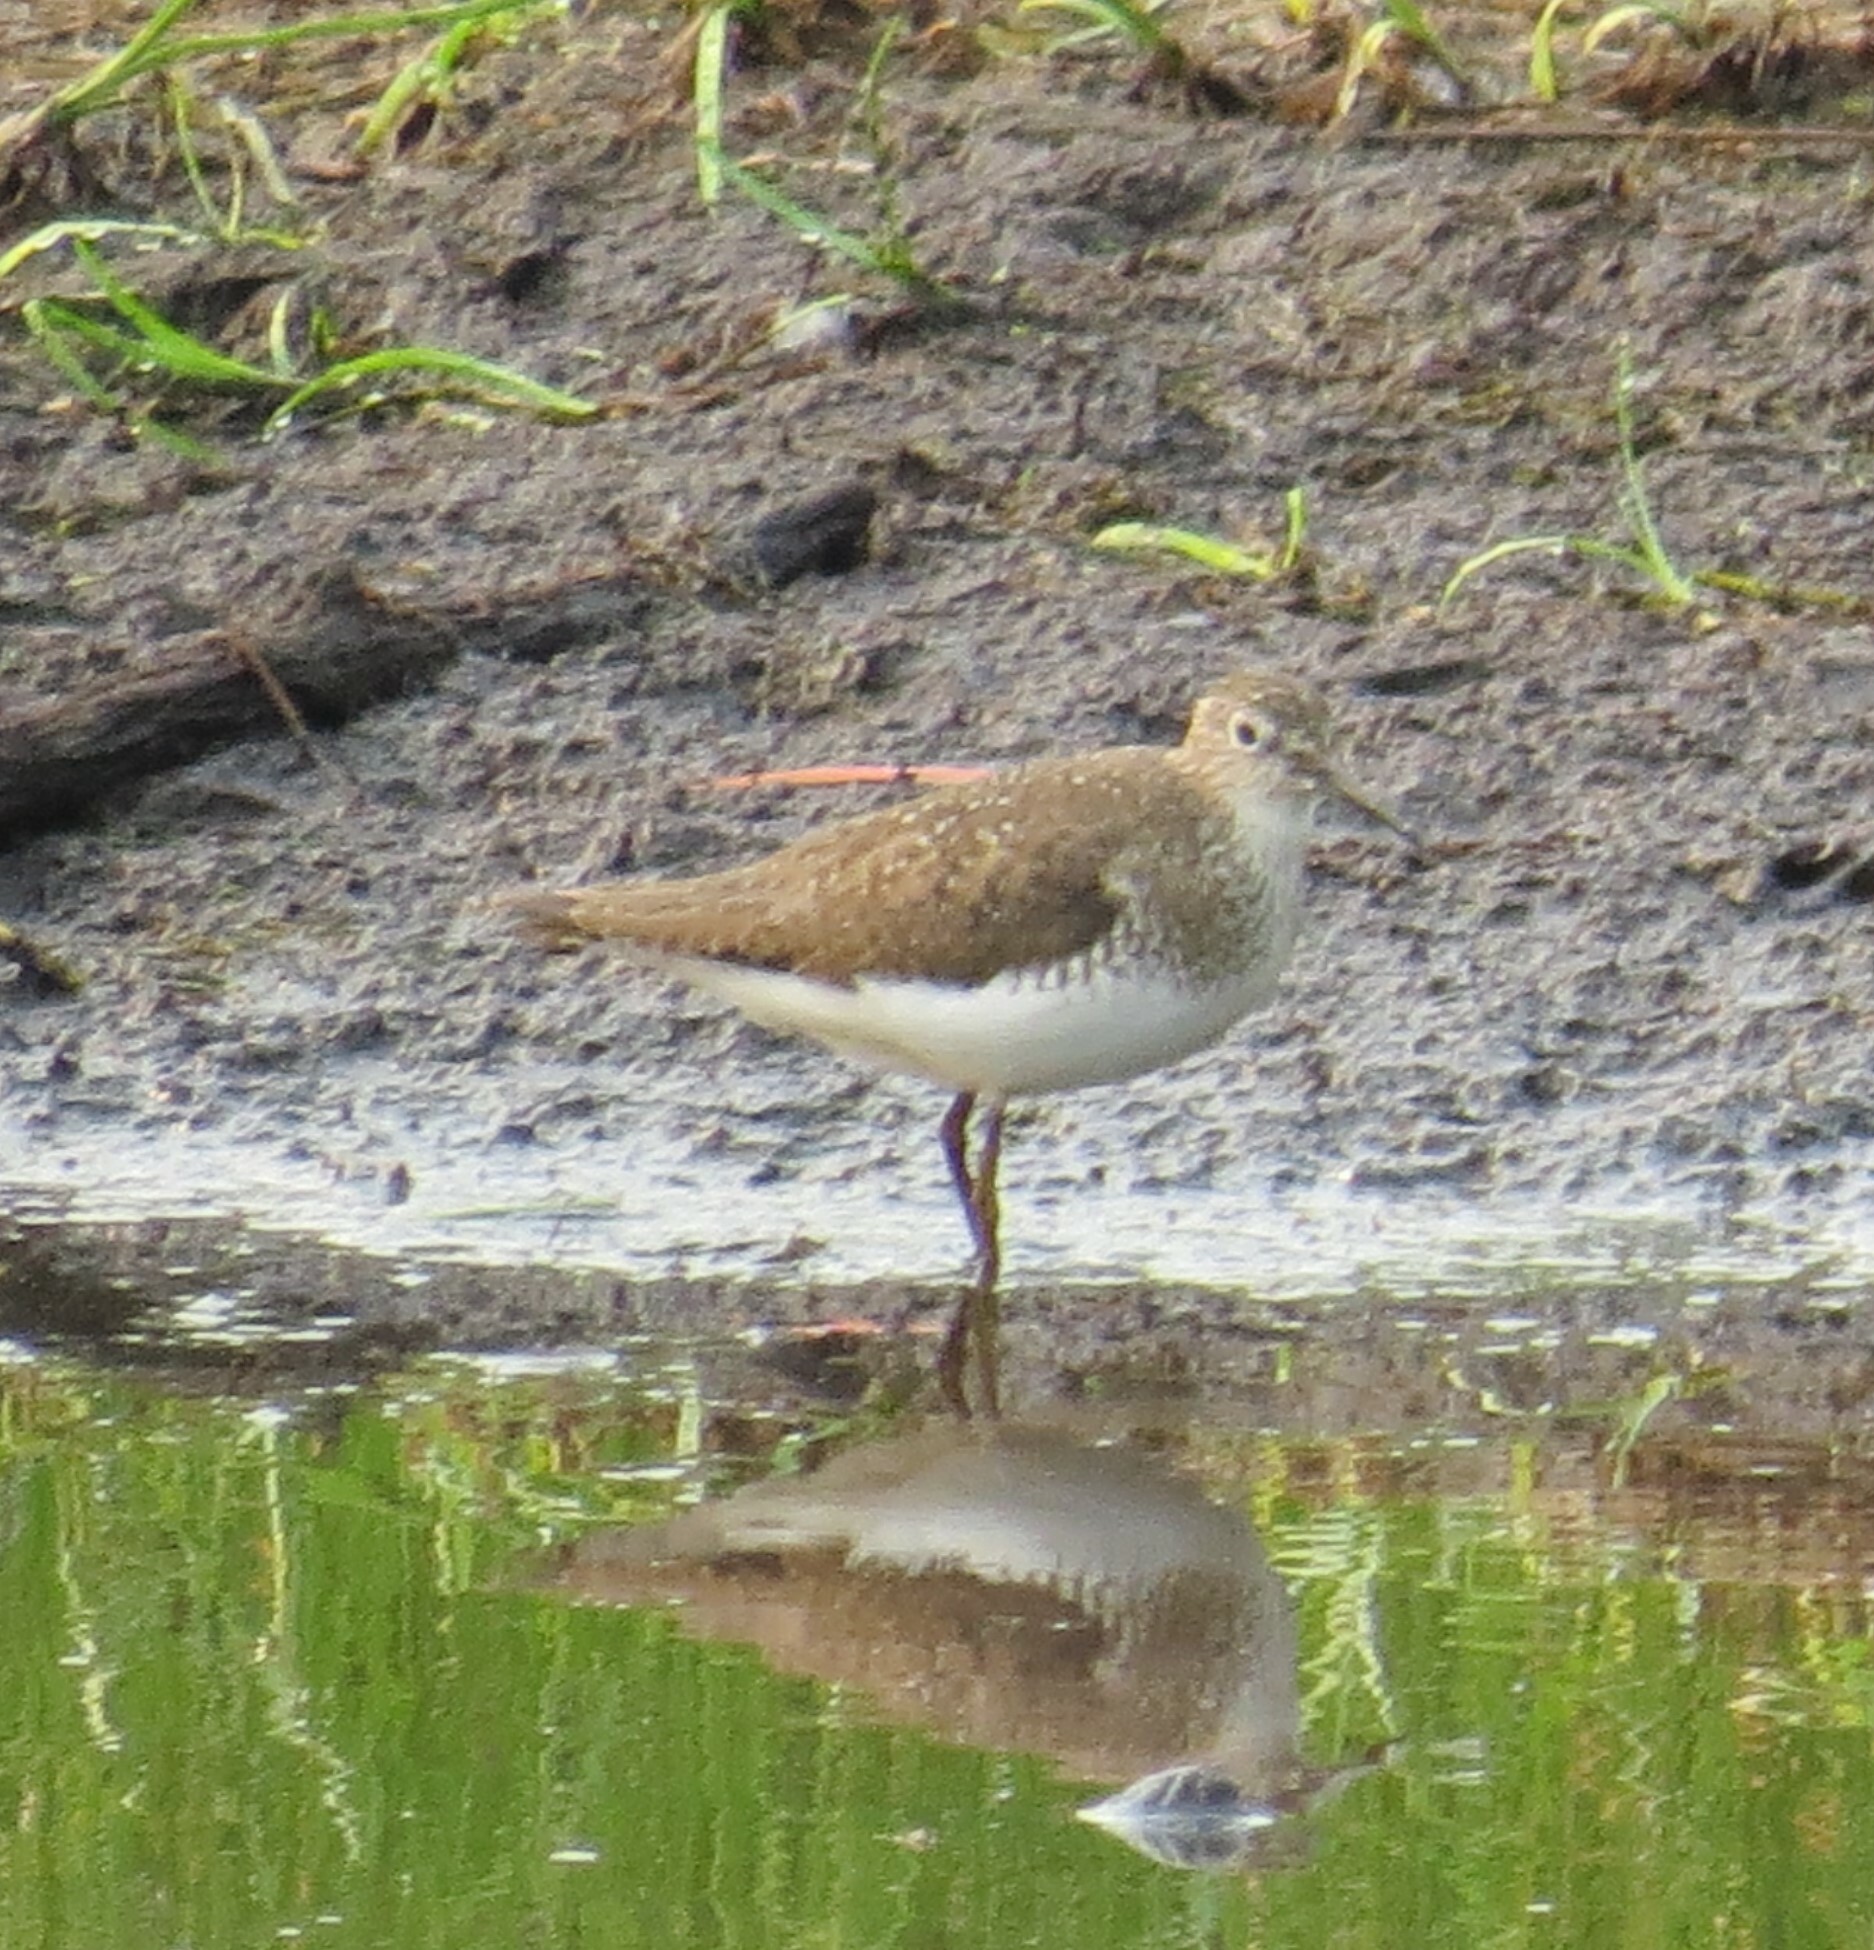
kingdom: Animalia
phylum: Chordata
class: Aves
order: Charadriiformes
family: Scolopacidae
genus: Tringa
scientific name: Tringa solitaria
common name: Solitary sandpiper
